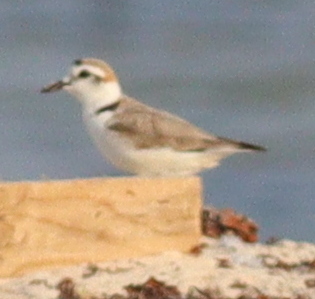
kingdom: Animalia
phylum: Chordata
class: Aves
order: Charadriiformes
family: Charadriidae
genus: Charadrius
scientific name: Charadrius alexandrinus
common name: Kentish plover
